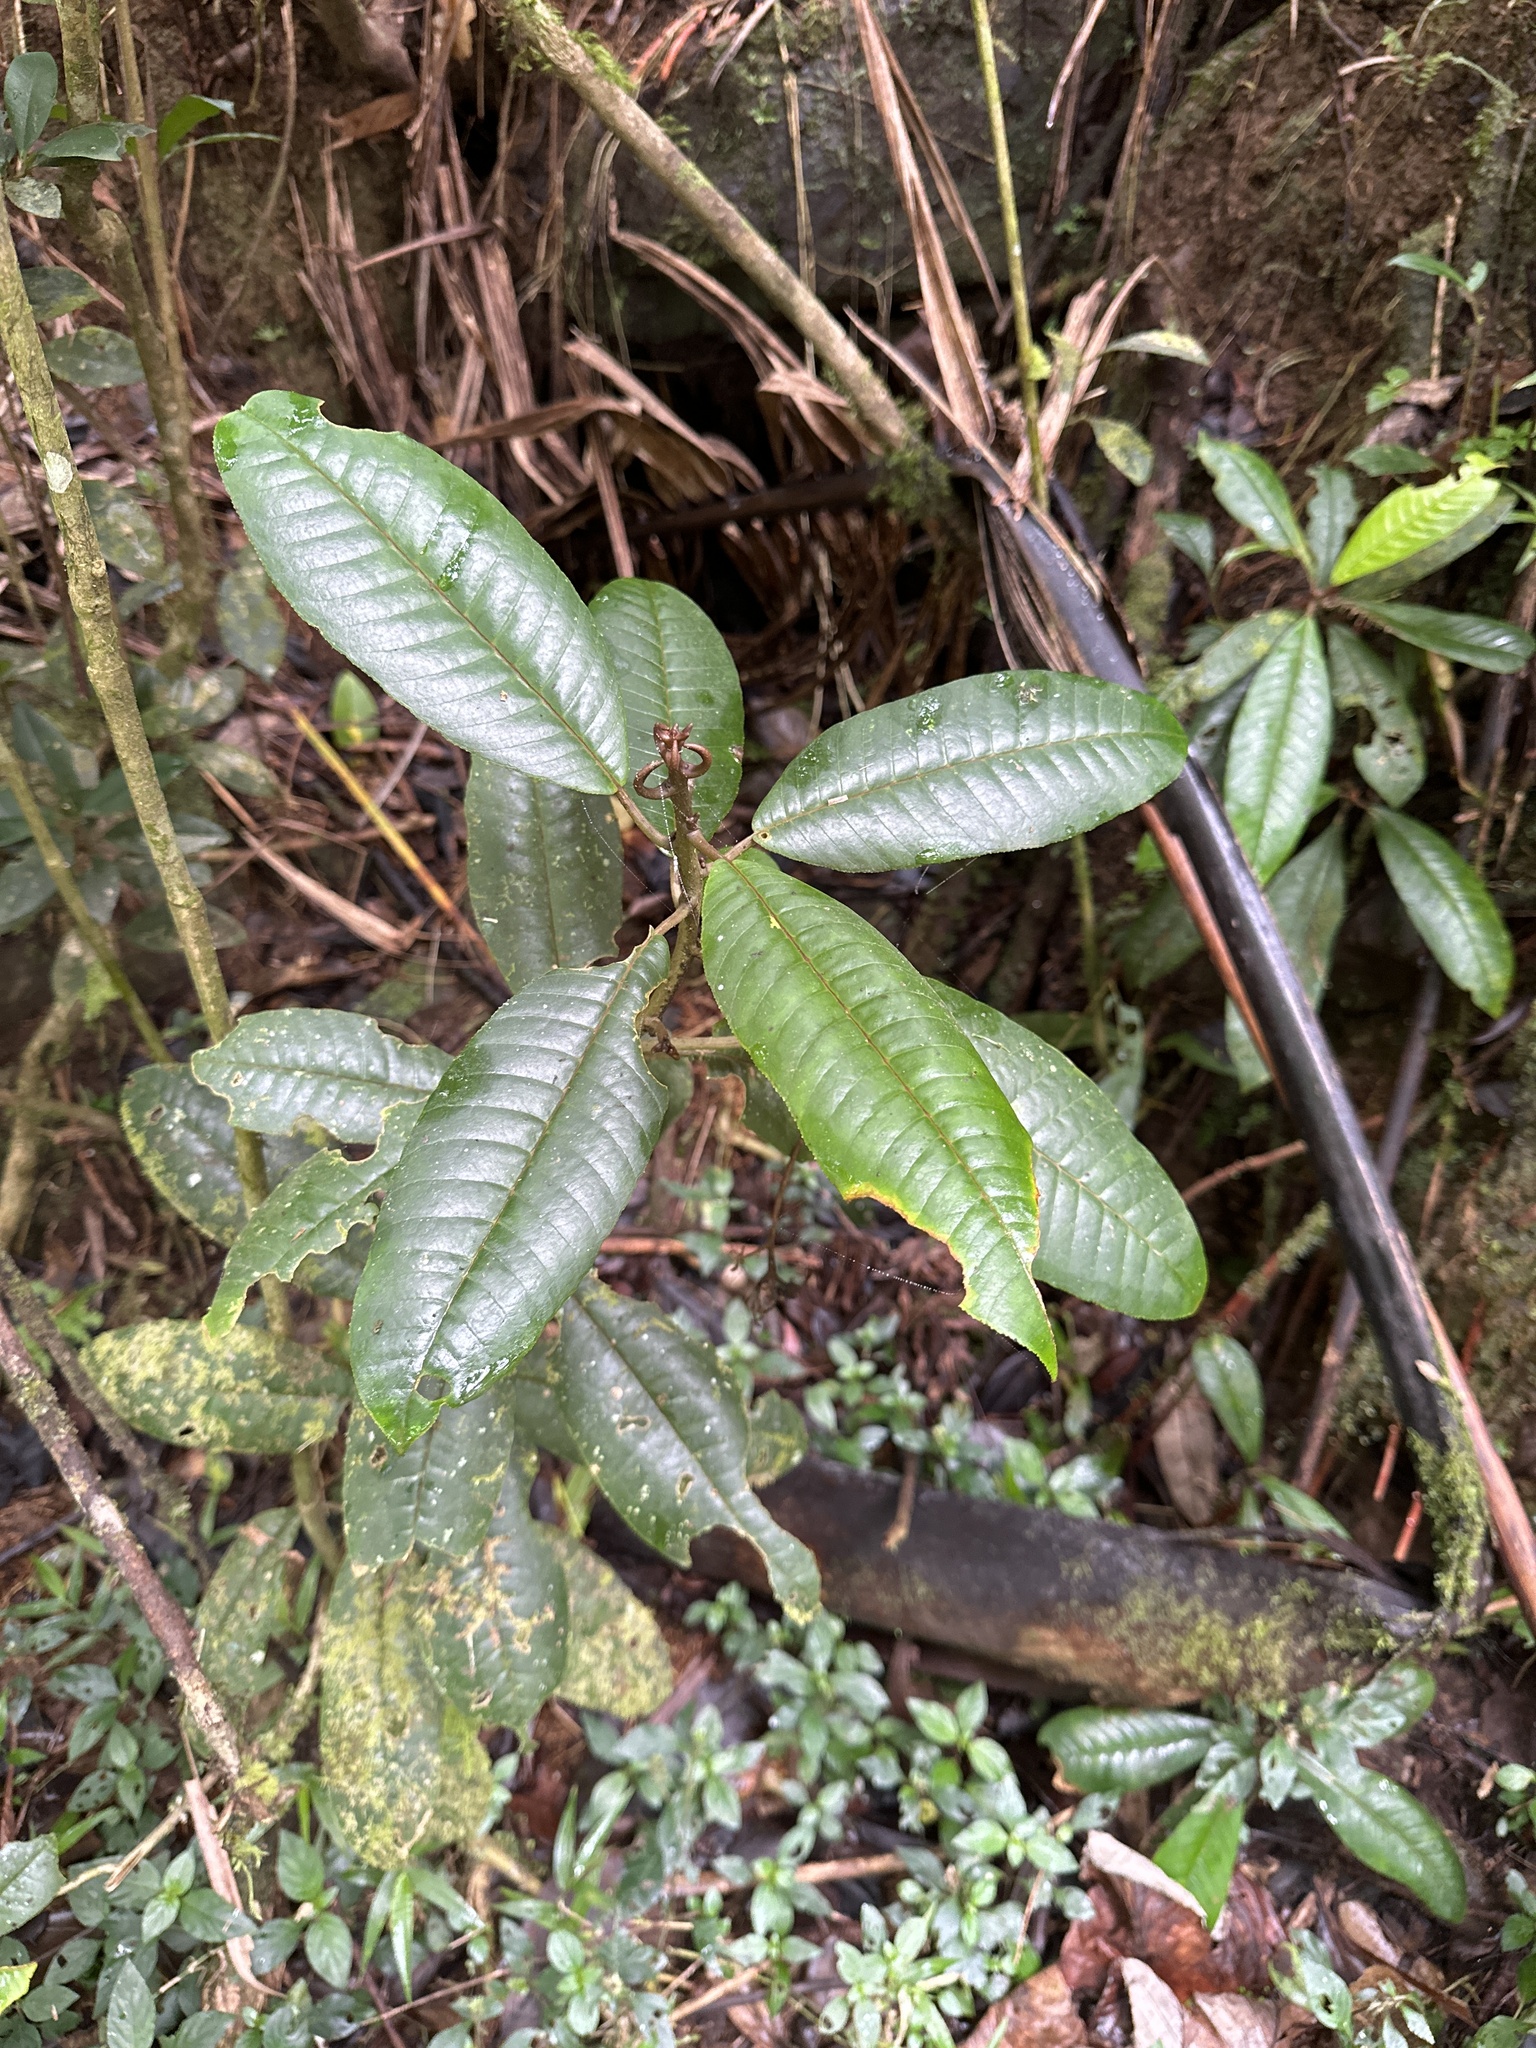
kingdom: Plantae
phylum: Tracheophyta
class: Magnoliopsida
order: Lamiales
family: Gesneriaceae
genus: Gesneria
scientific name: Gesneria sintenisii
